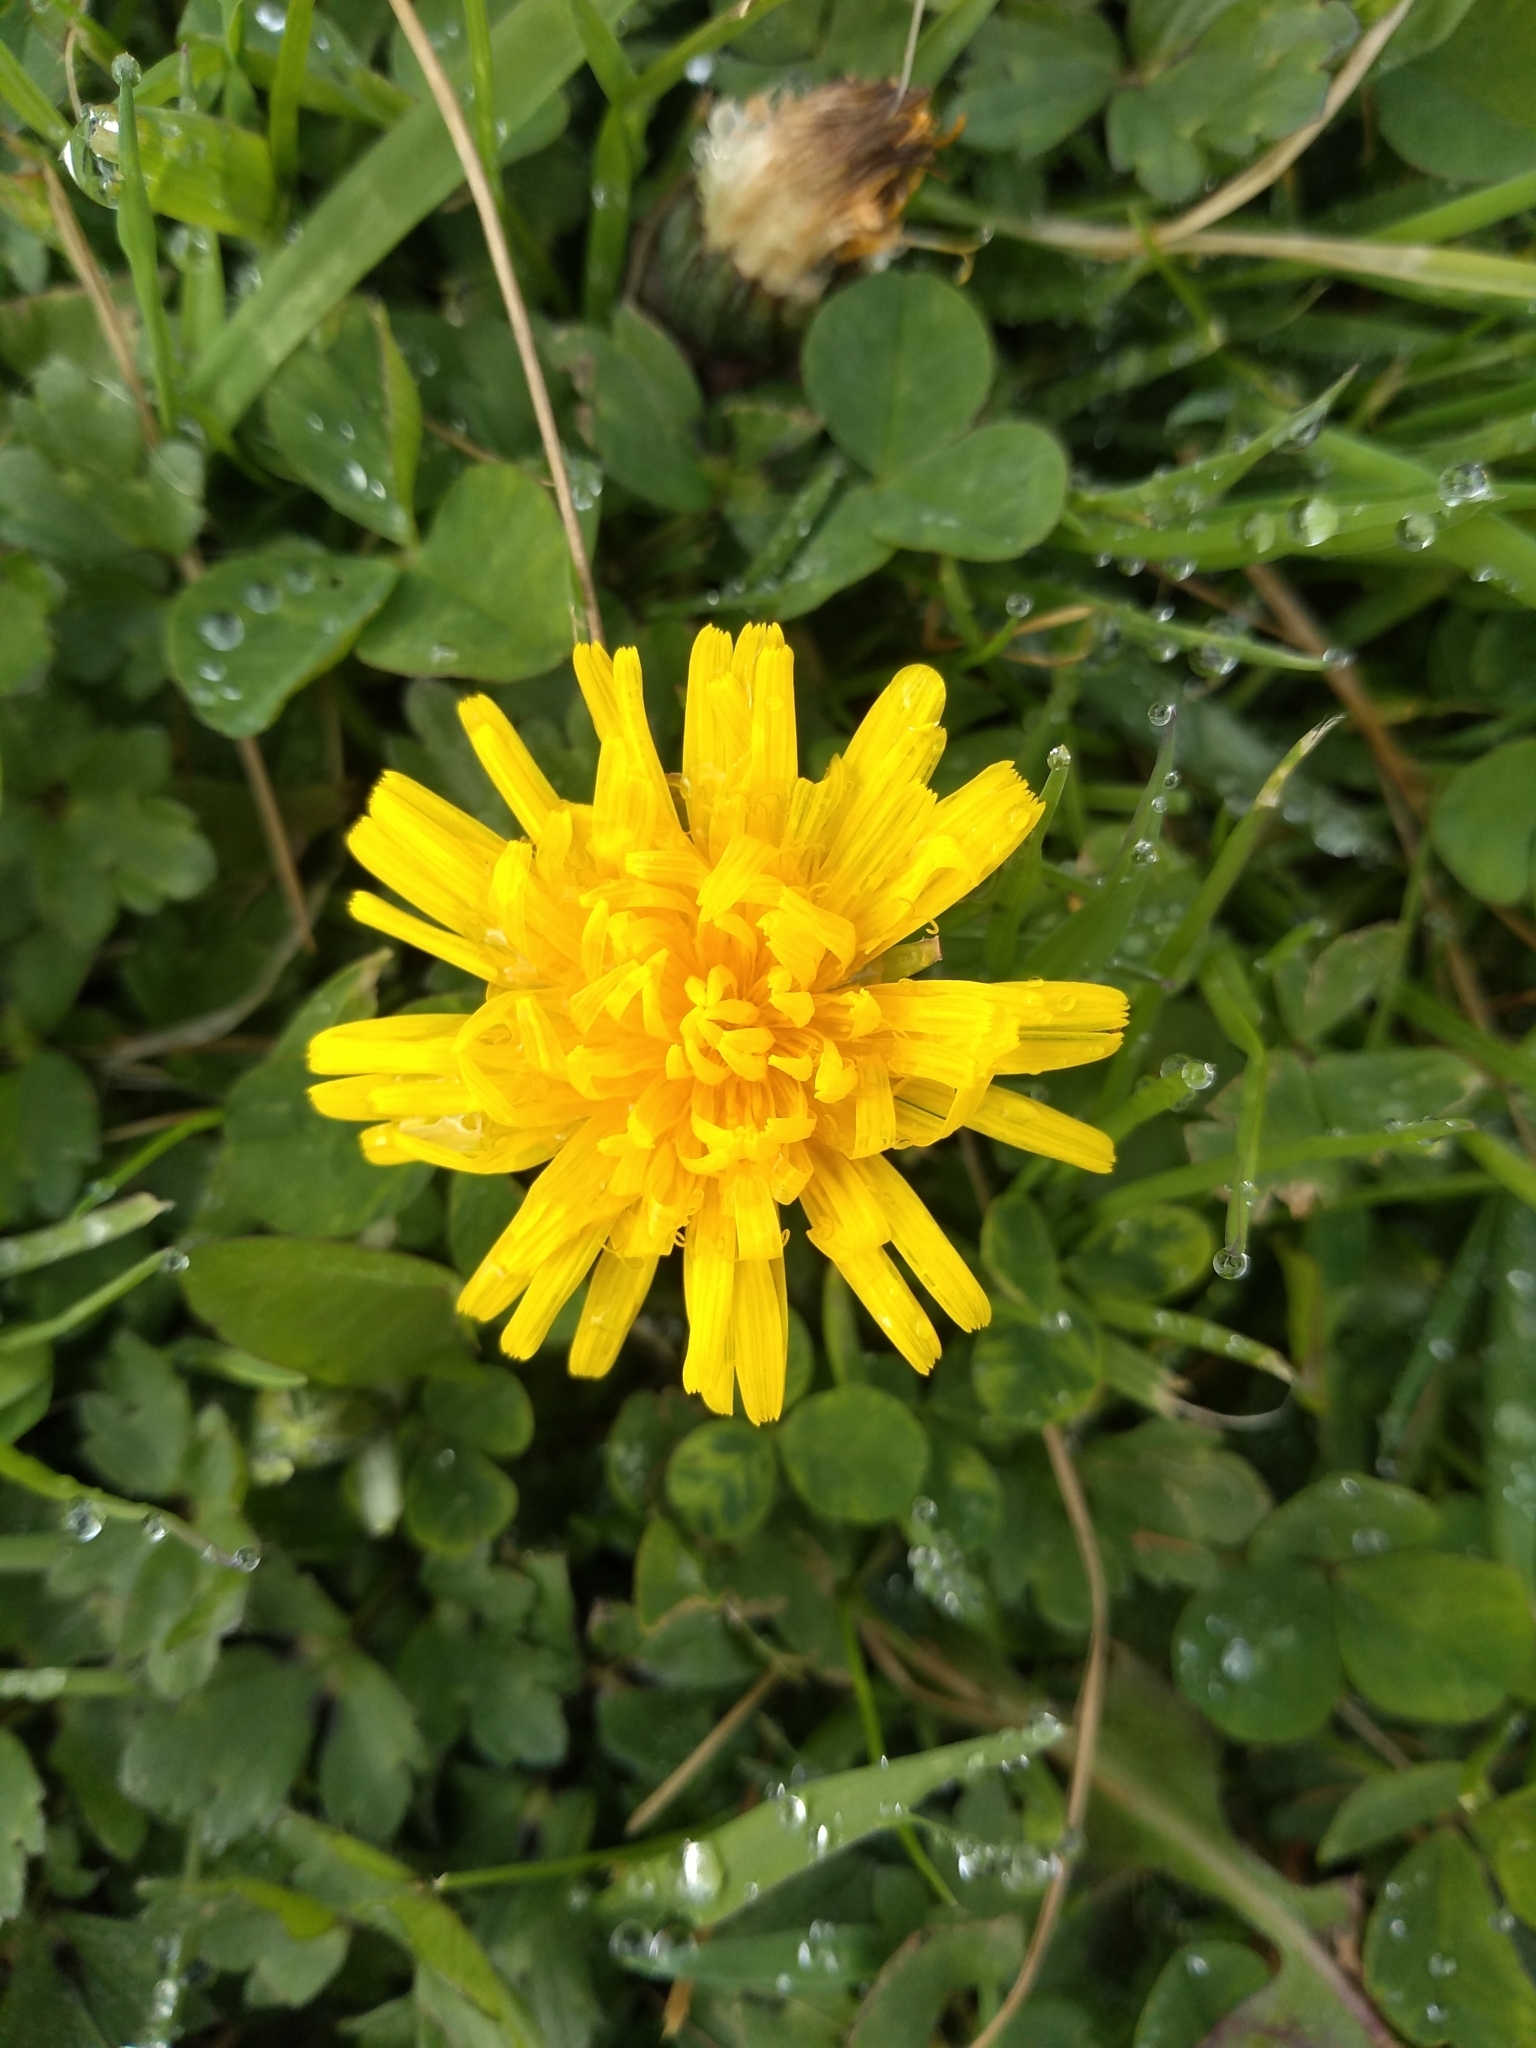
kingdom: Plantae
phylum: Tracheophyta
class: Magnoliopsida
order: Asterales
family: Asteraceae
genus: Taraxacum
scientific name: Taraxacum officinale
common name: Common dandelion
